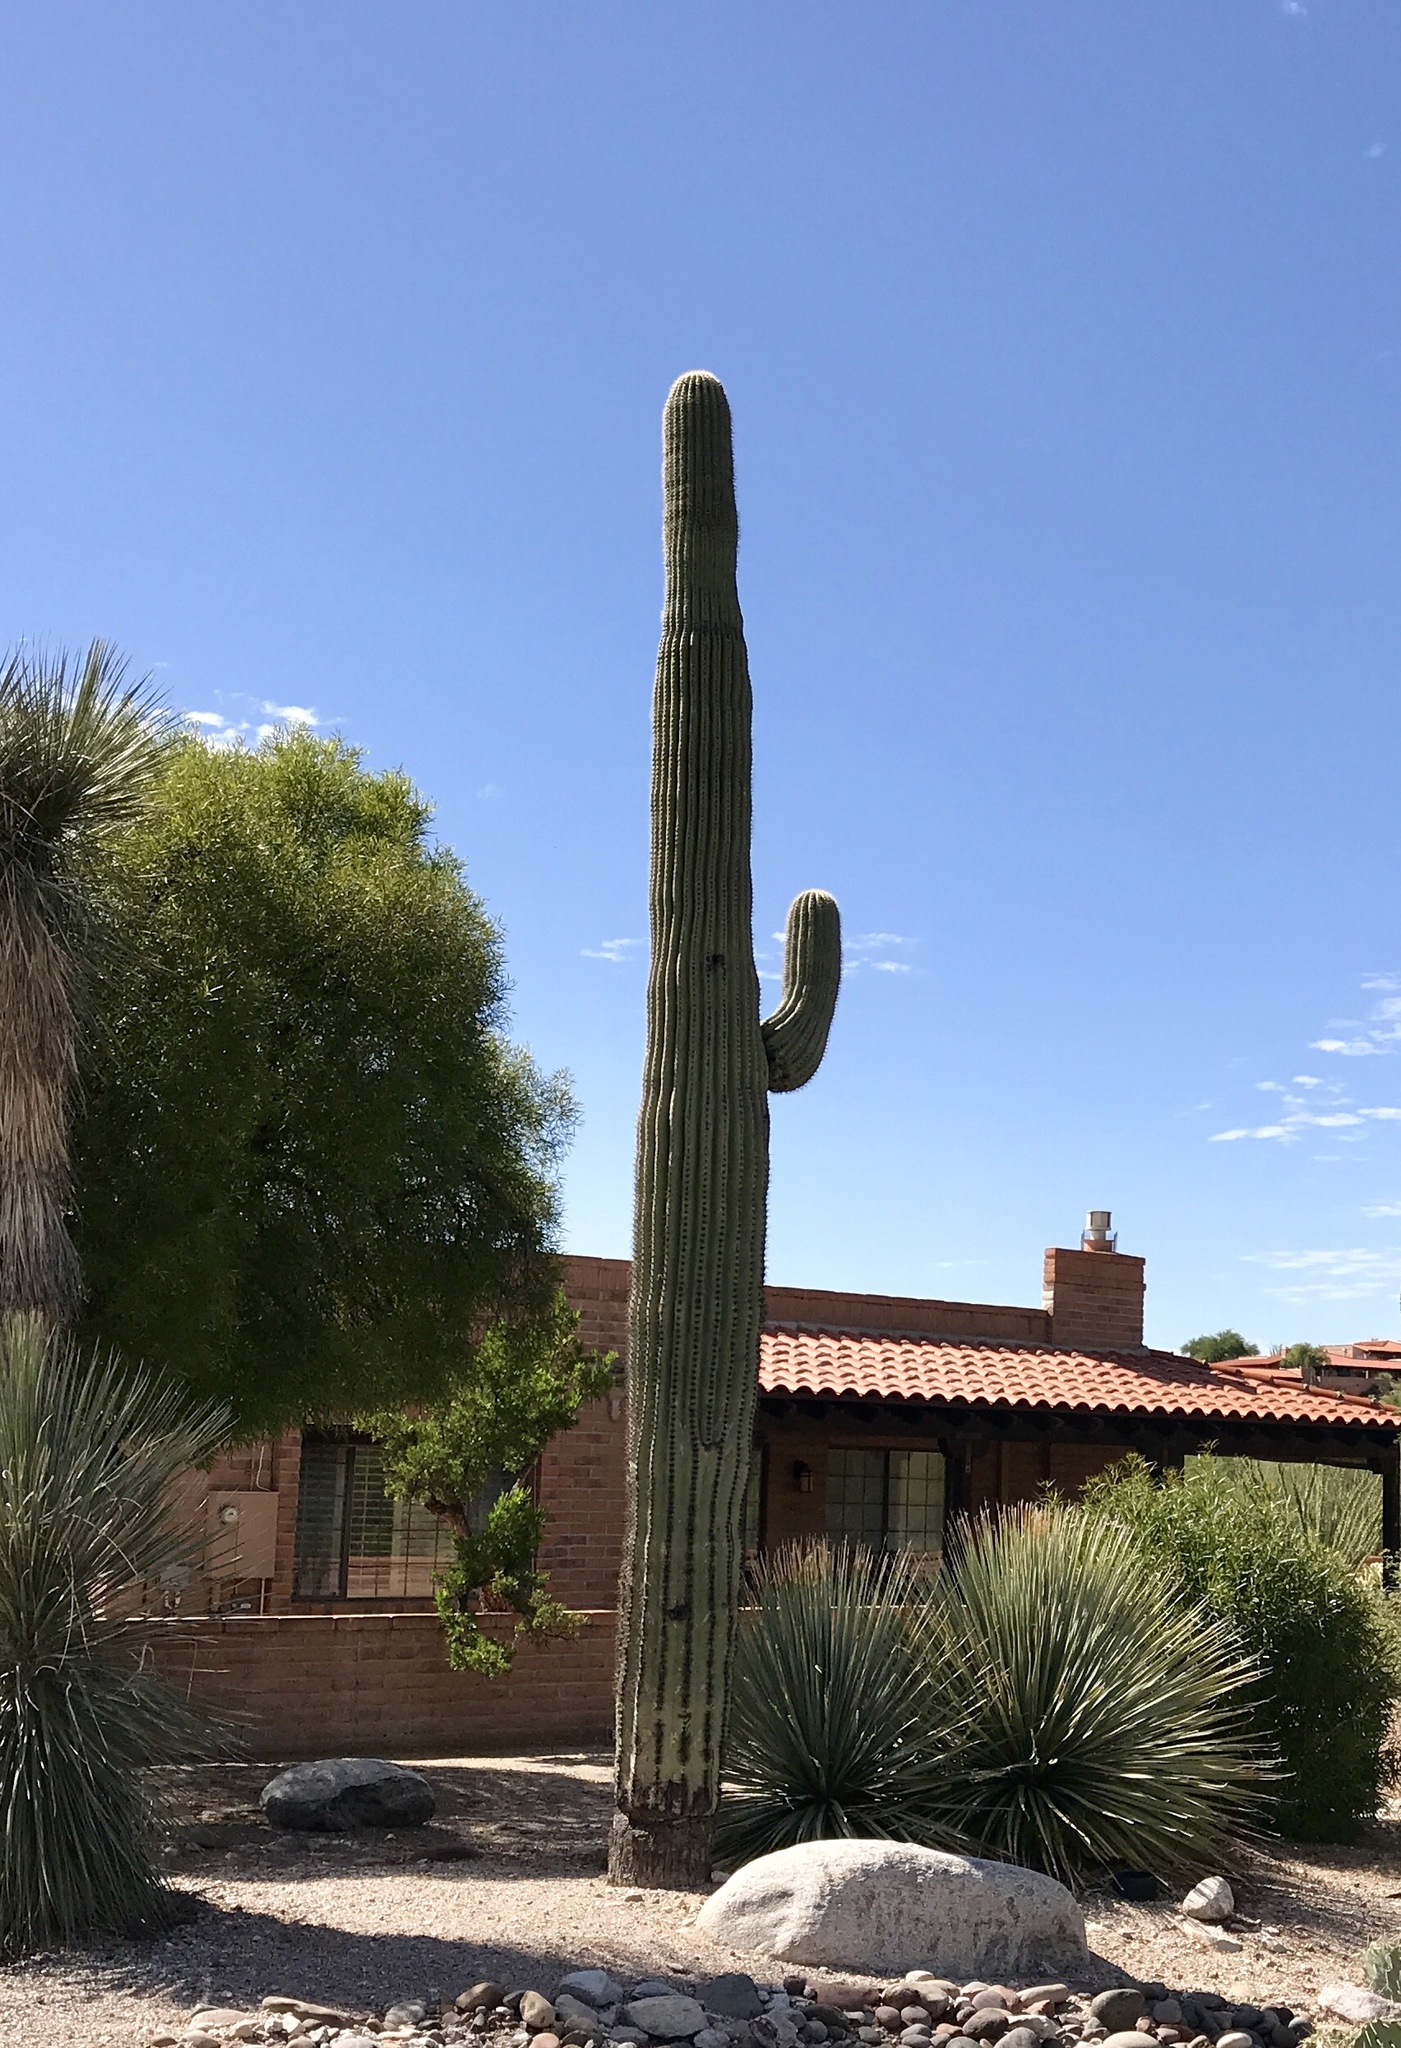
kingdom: Plantae
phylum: Tracheophyta
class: Magnoliopsida
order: Caryophyllales
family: Cactaceae
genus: Carnegiea
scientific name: Carnegiea gigantea
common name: Saguaro
